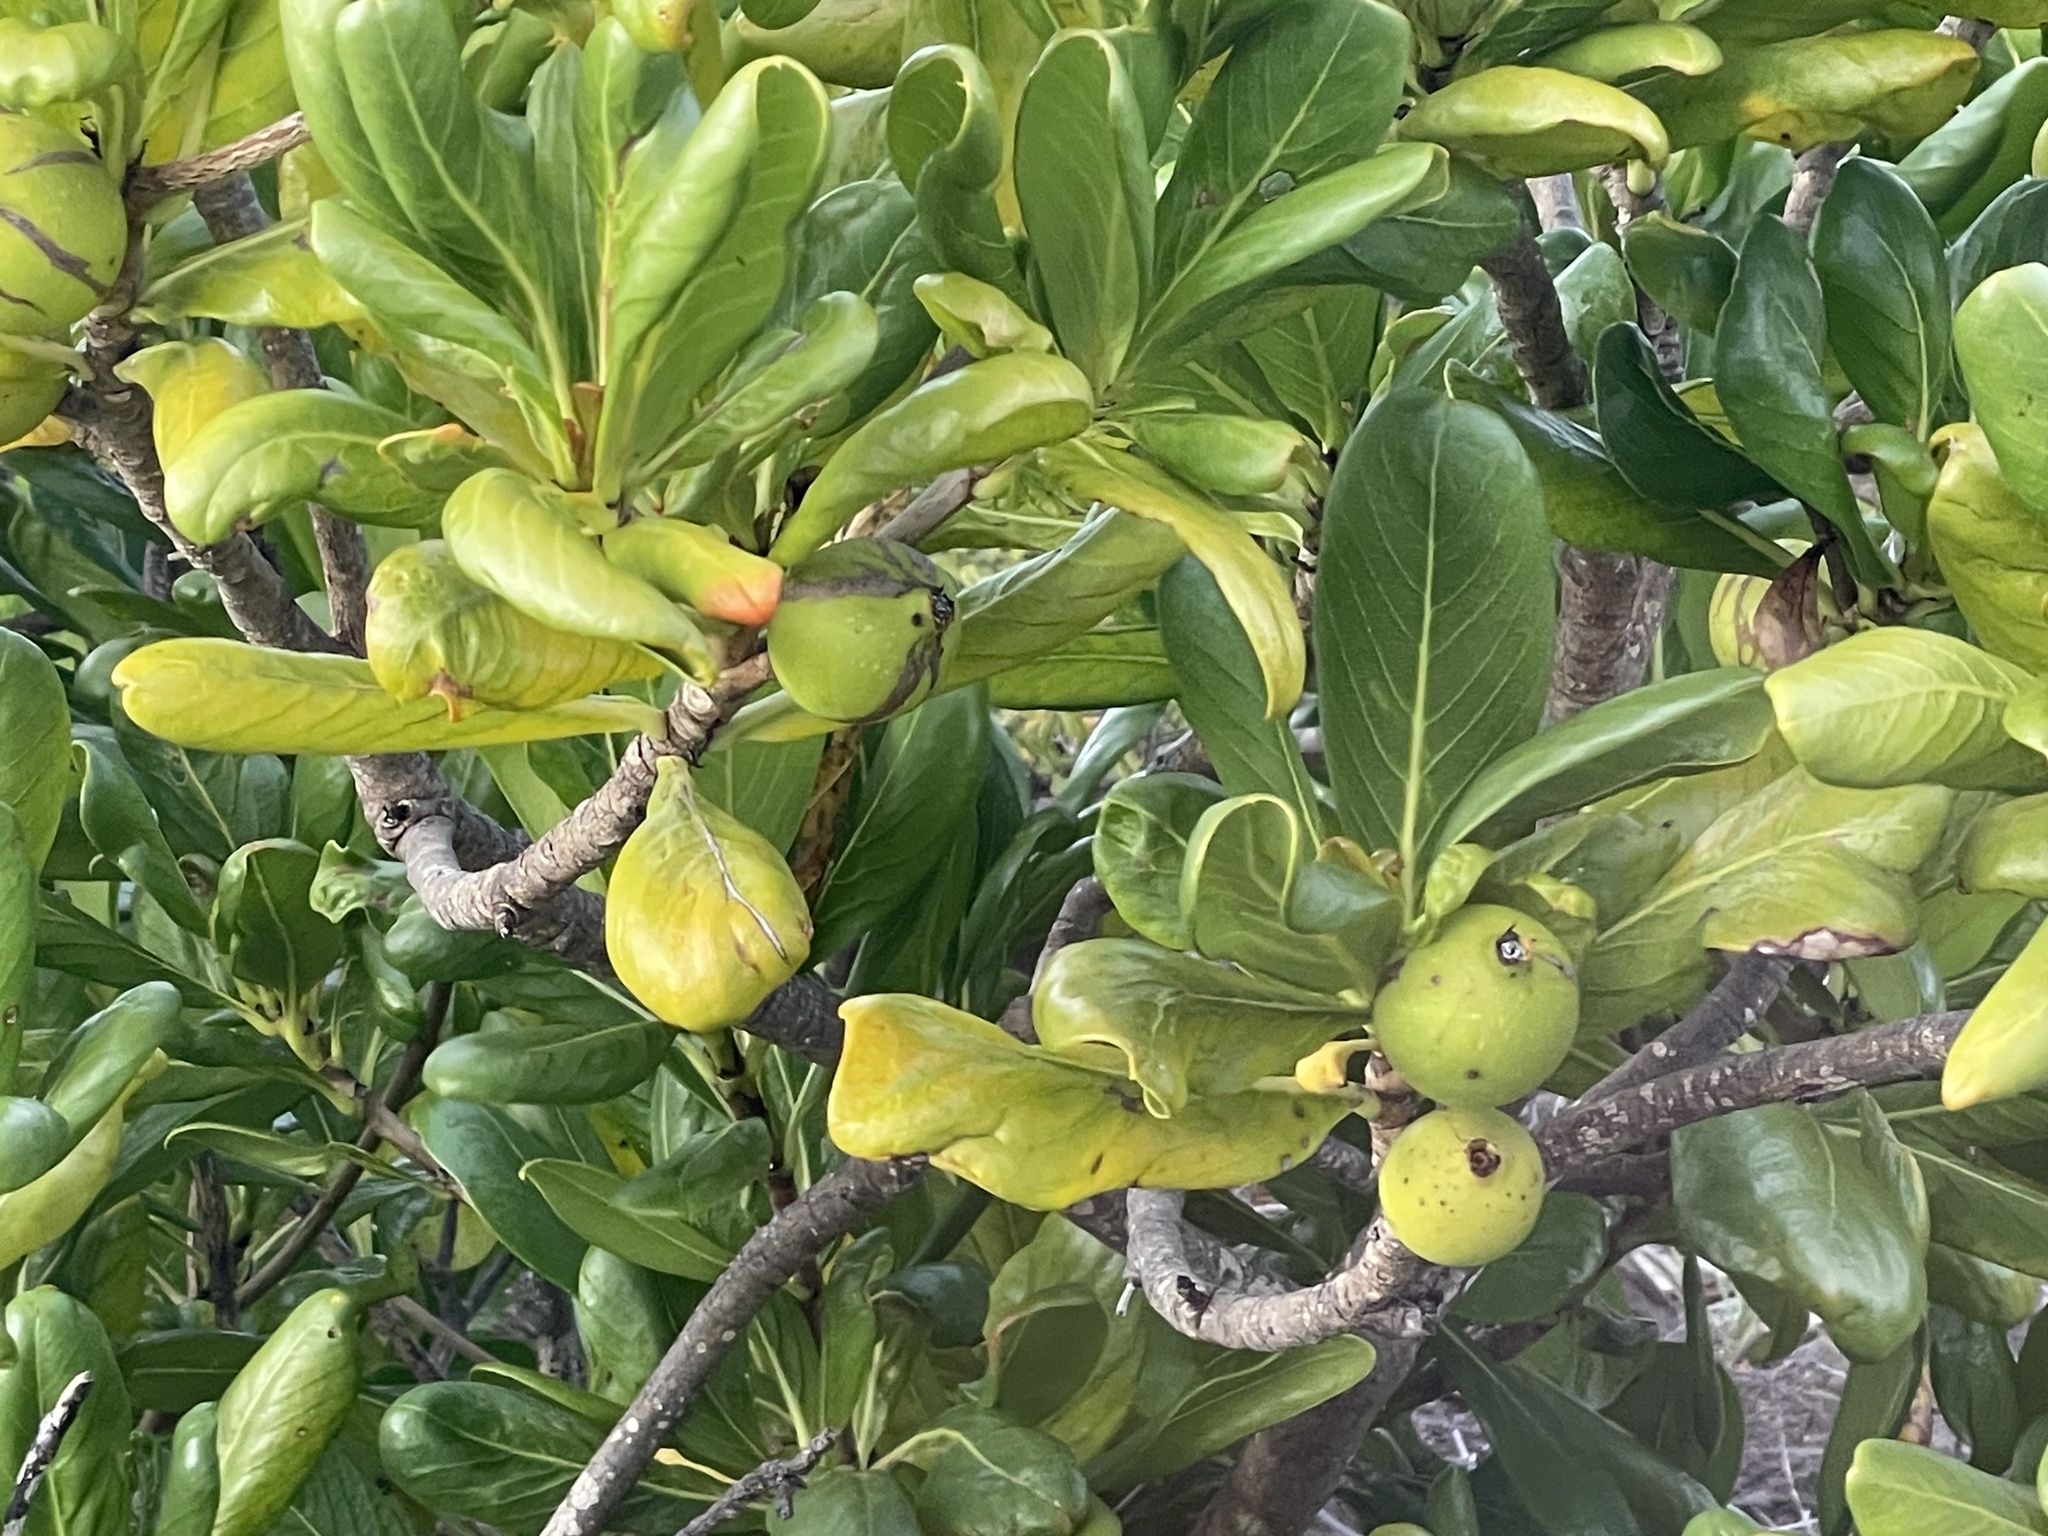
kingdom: Plantae
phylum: Tracheophyta
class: Magnoliopsida
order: Gentianales
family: Rubiaceae
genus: Casasia
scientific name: Casasia clusiifolia
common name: Seven-year apple
